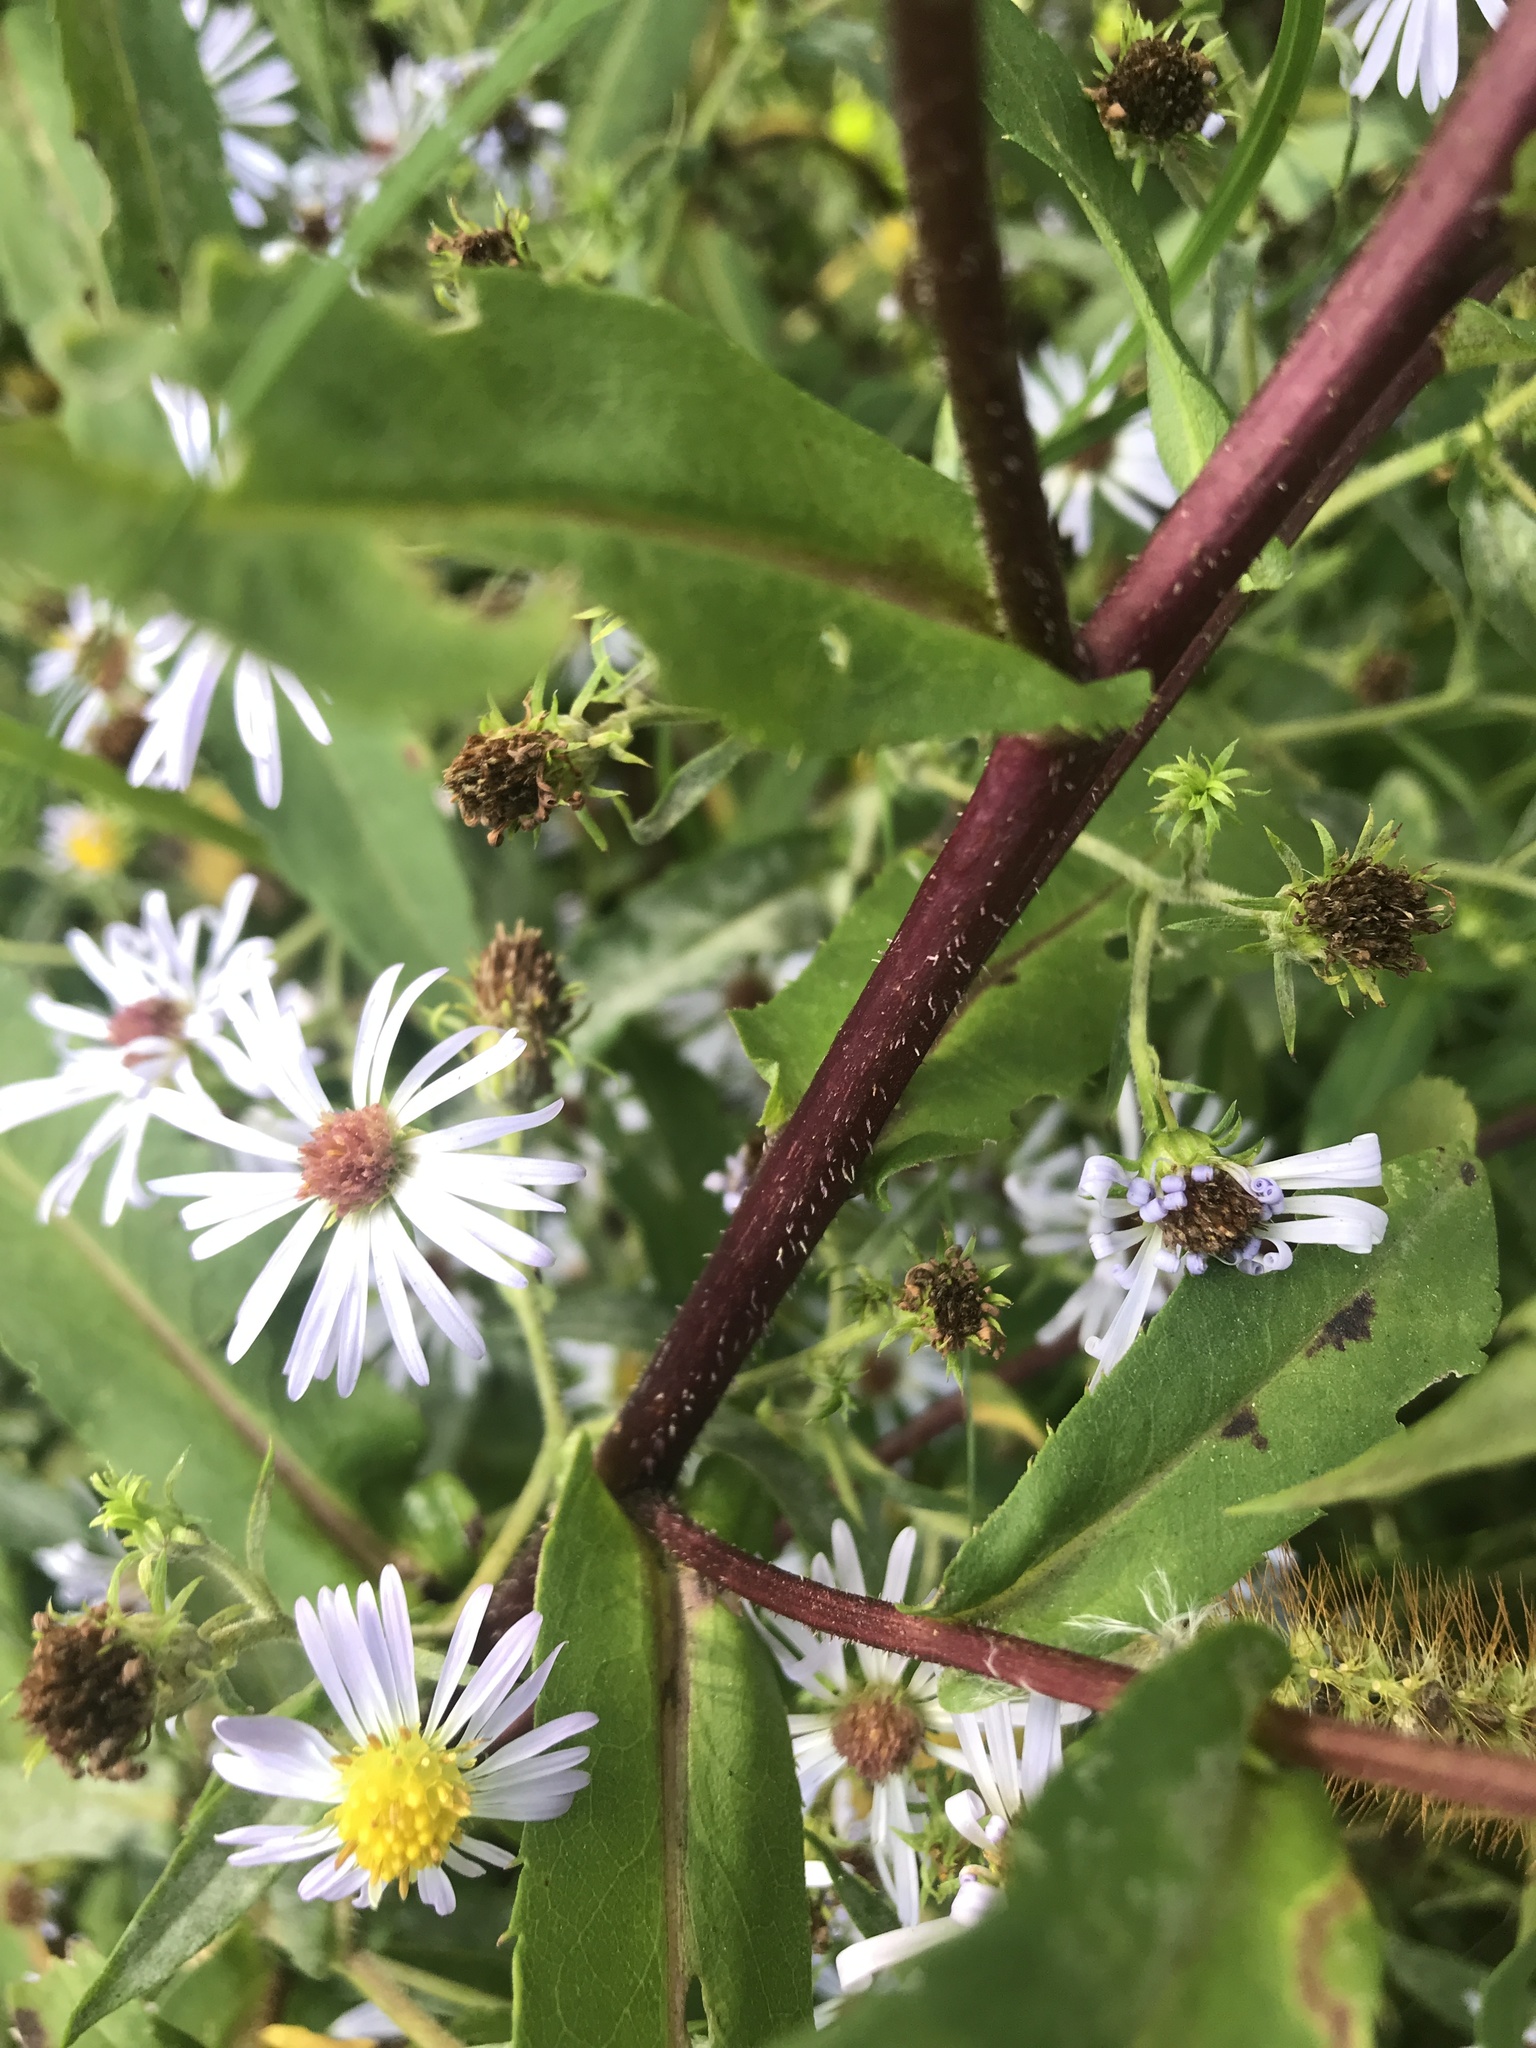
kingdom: Plantae
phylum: Tracheophyta
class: Magnoliopsida
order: Asterales
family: Asteraceae
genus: Symphyotrichum
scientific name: Symphyotrichum puniceum
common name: Bog aster
